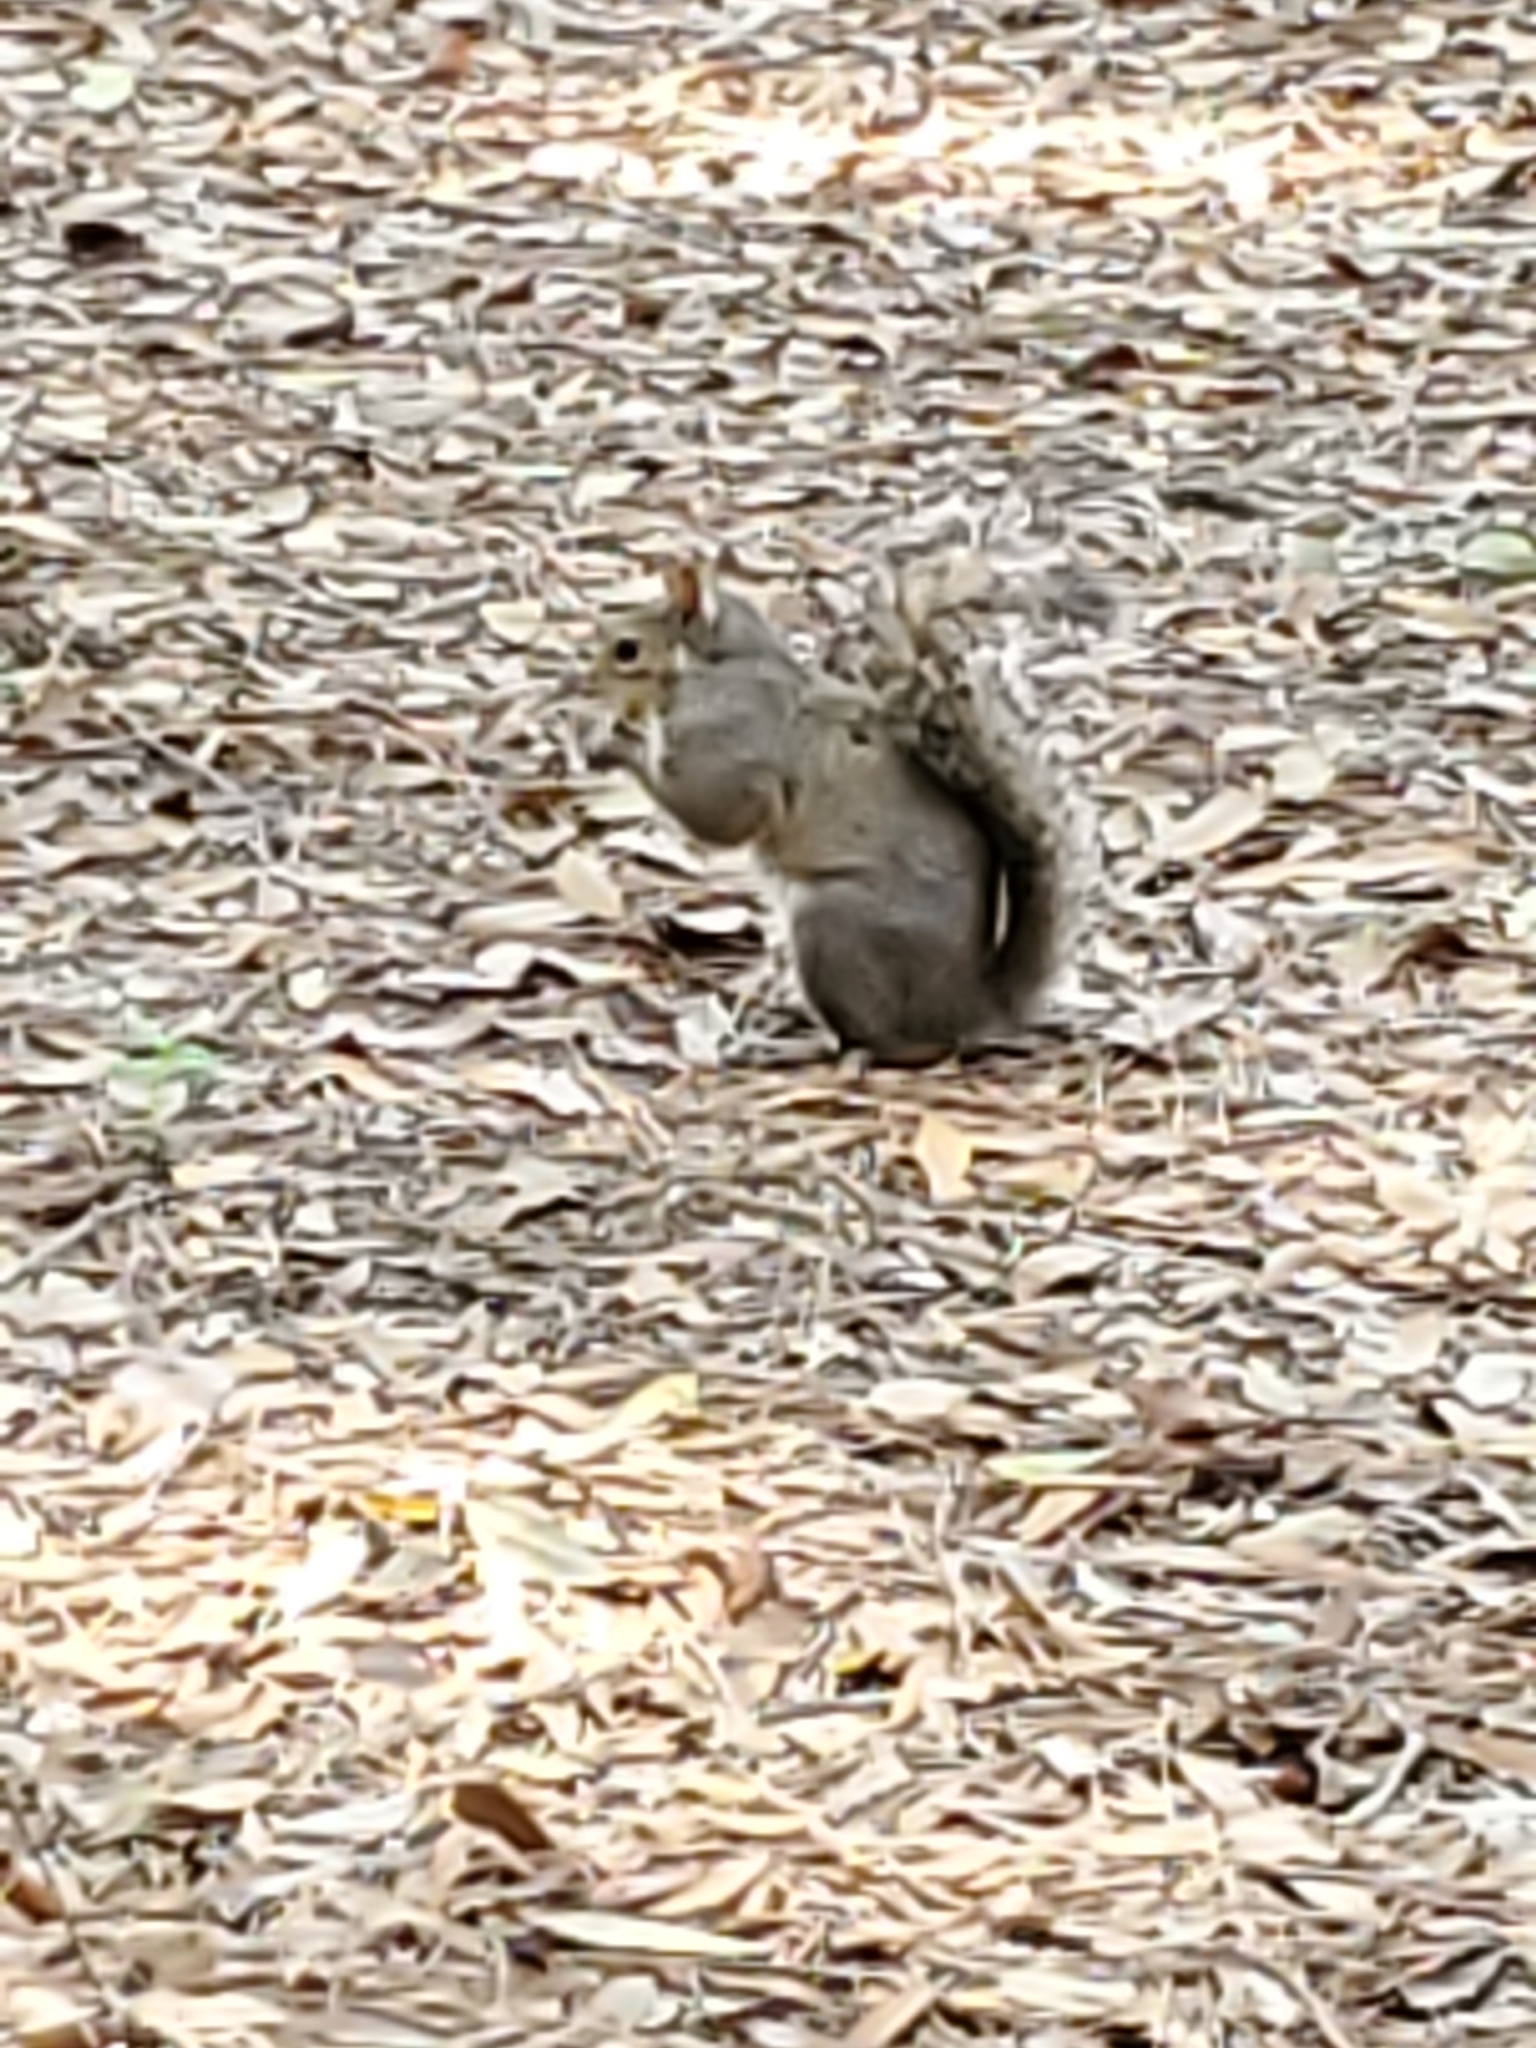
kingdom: Animalia
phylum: Chordata
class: Mammalia
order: Rodentia
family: Sciuridae
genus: Sciurus
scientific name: Sciurus carolinensis
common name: Eastern gray squirrel
